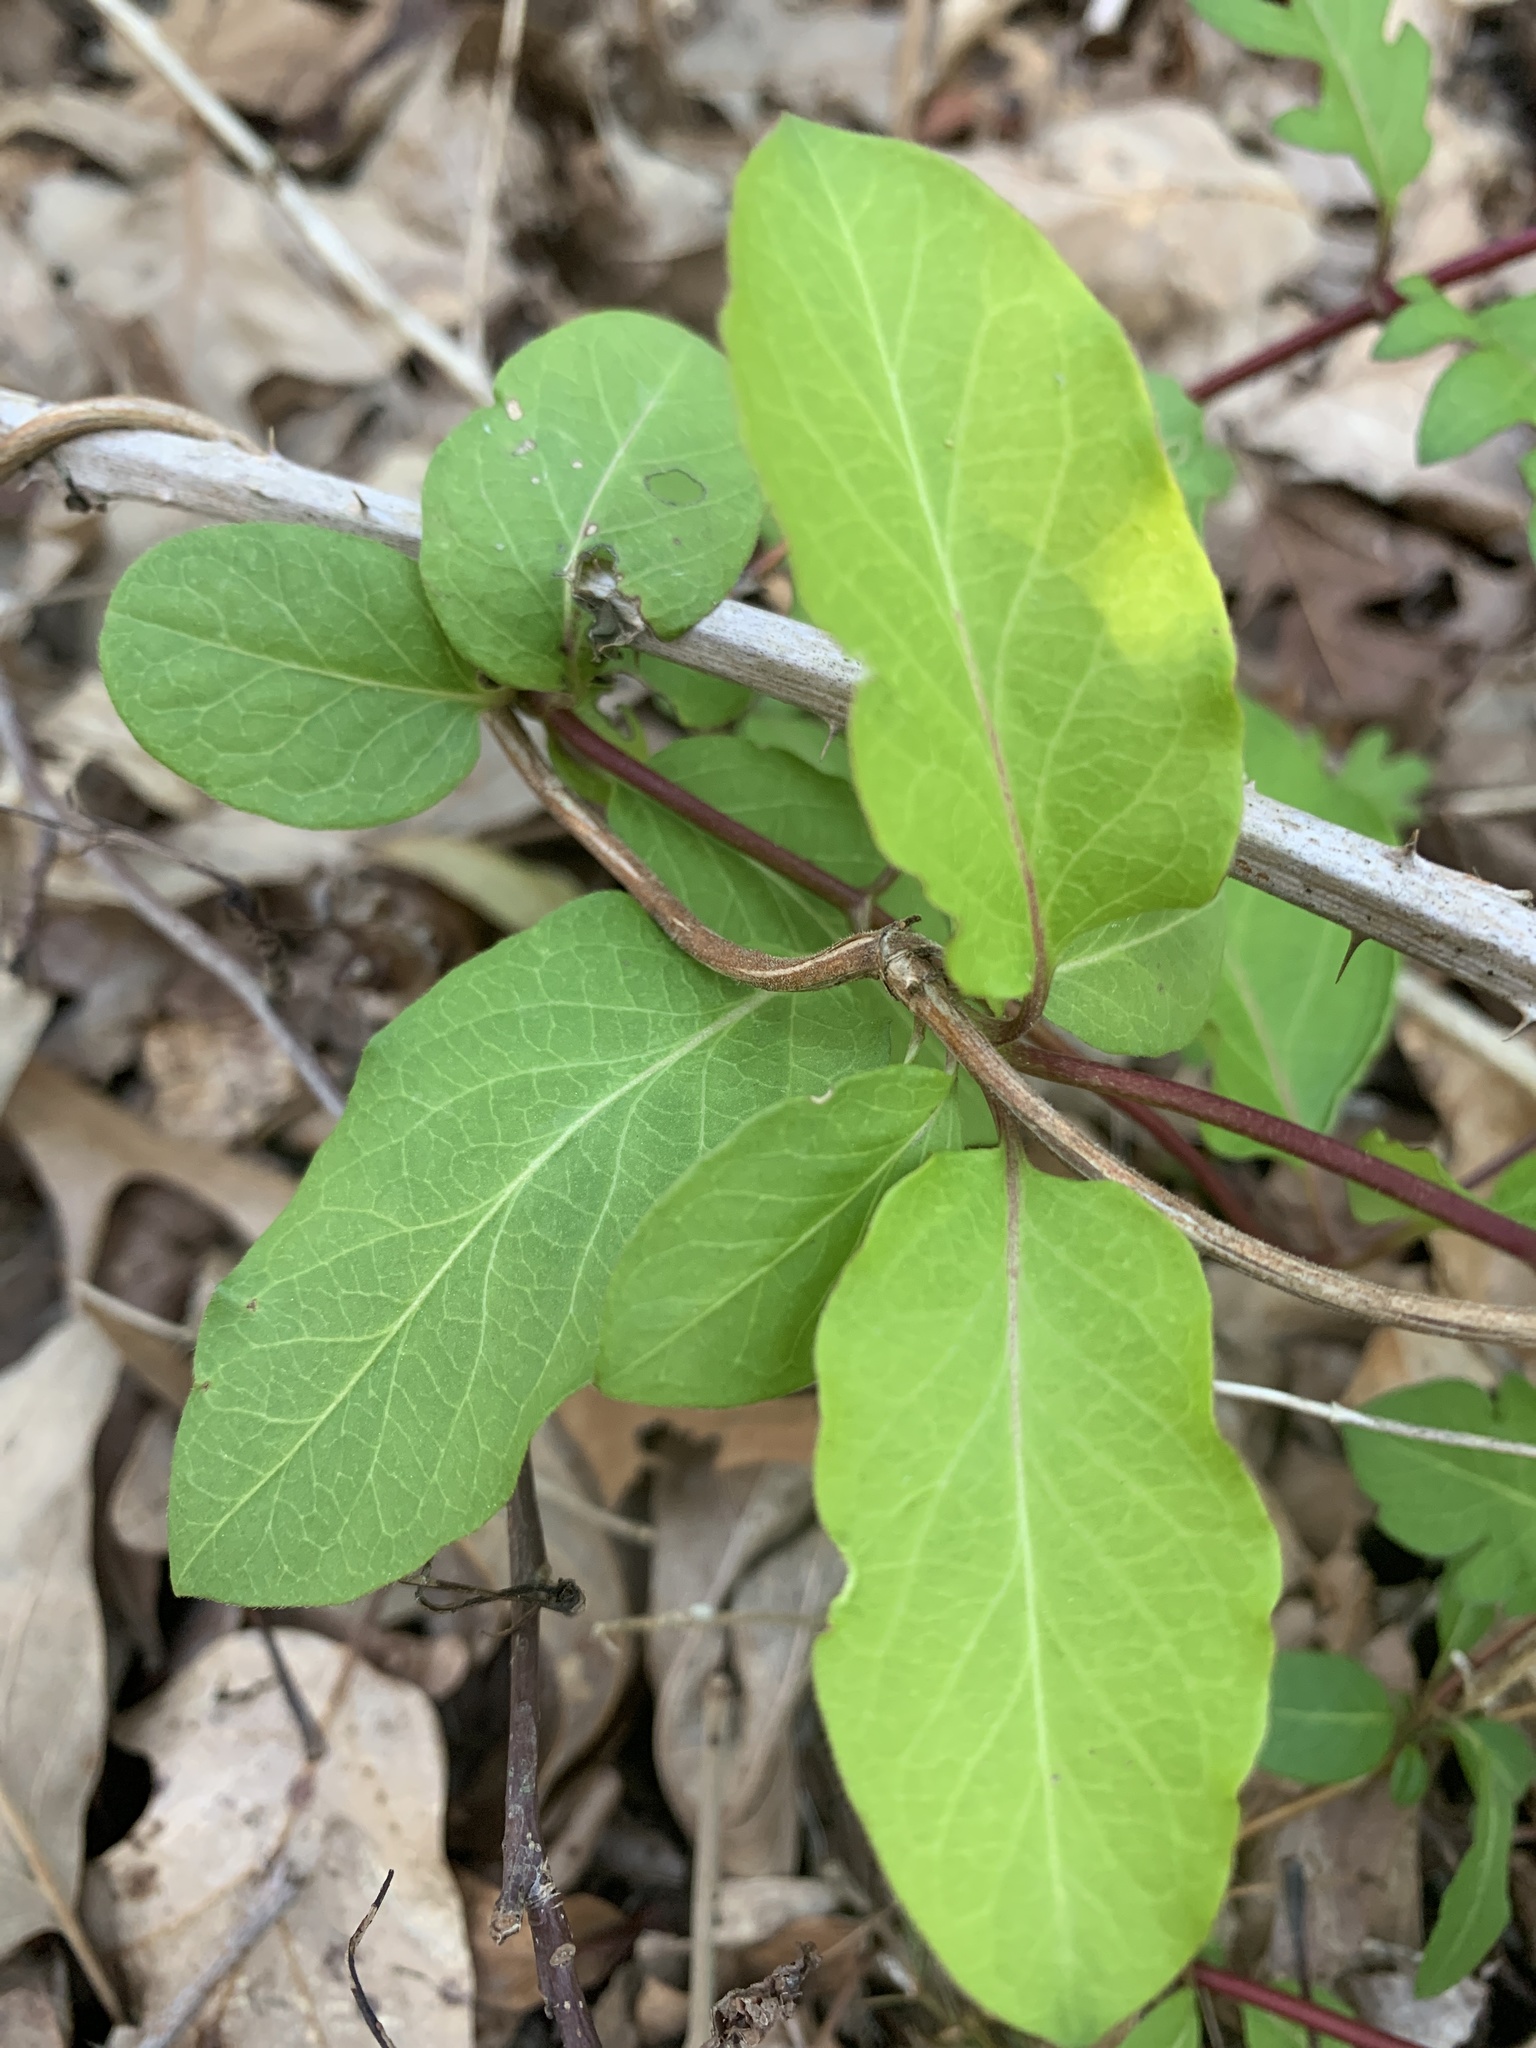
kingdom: Plantae
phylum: Tracheophyta
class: Magnoliopsida
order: Dipsacales
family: Caprifoliaceae
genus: Lonicera
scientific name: Lonicera japonica
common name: Japanese honeysuckle
